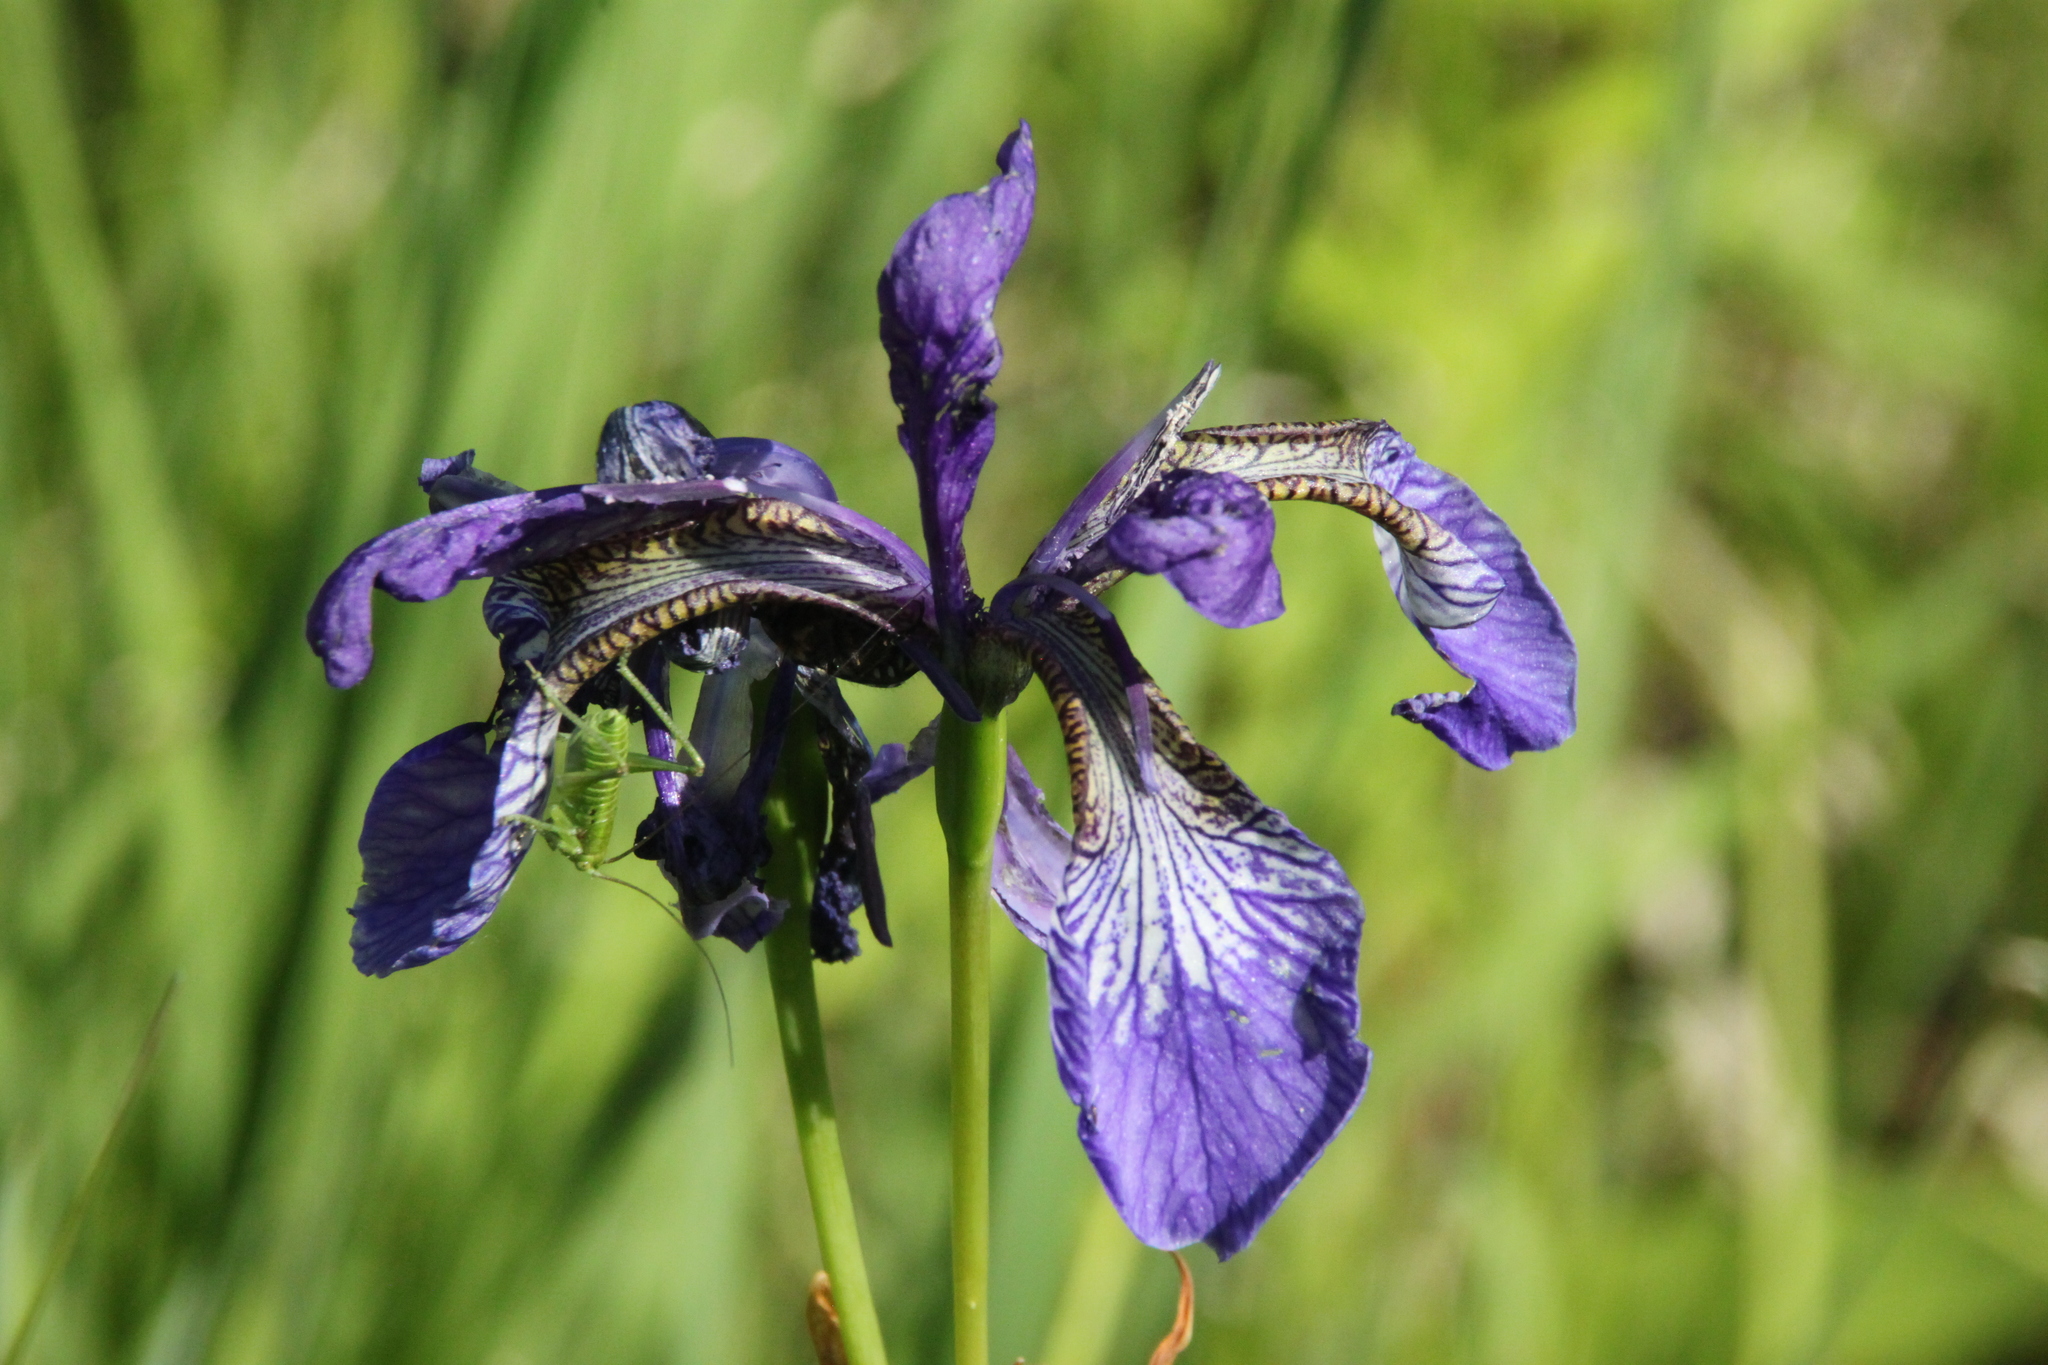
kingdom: Plantae
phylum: Tracheophyta
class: Liliopsida
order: Asparagales
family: Iridaceae
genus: Iris
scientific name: Iris sibirica
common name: Siberian iris
